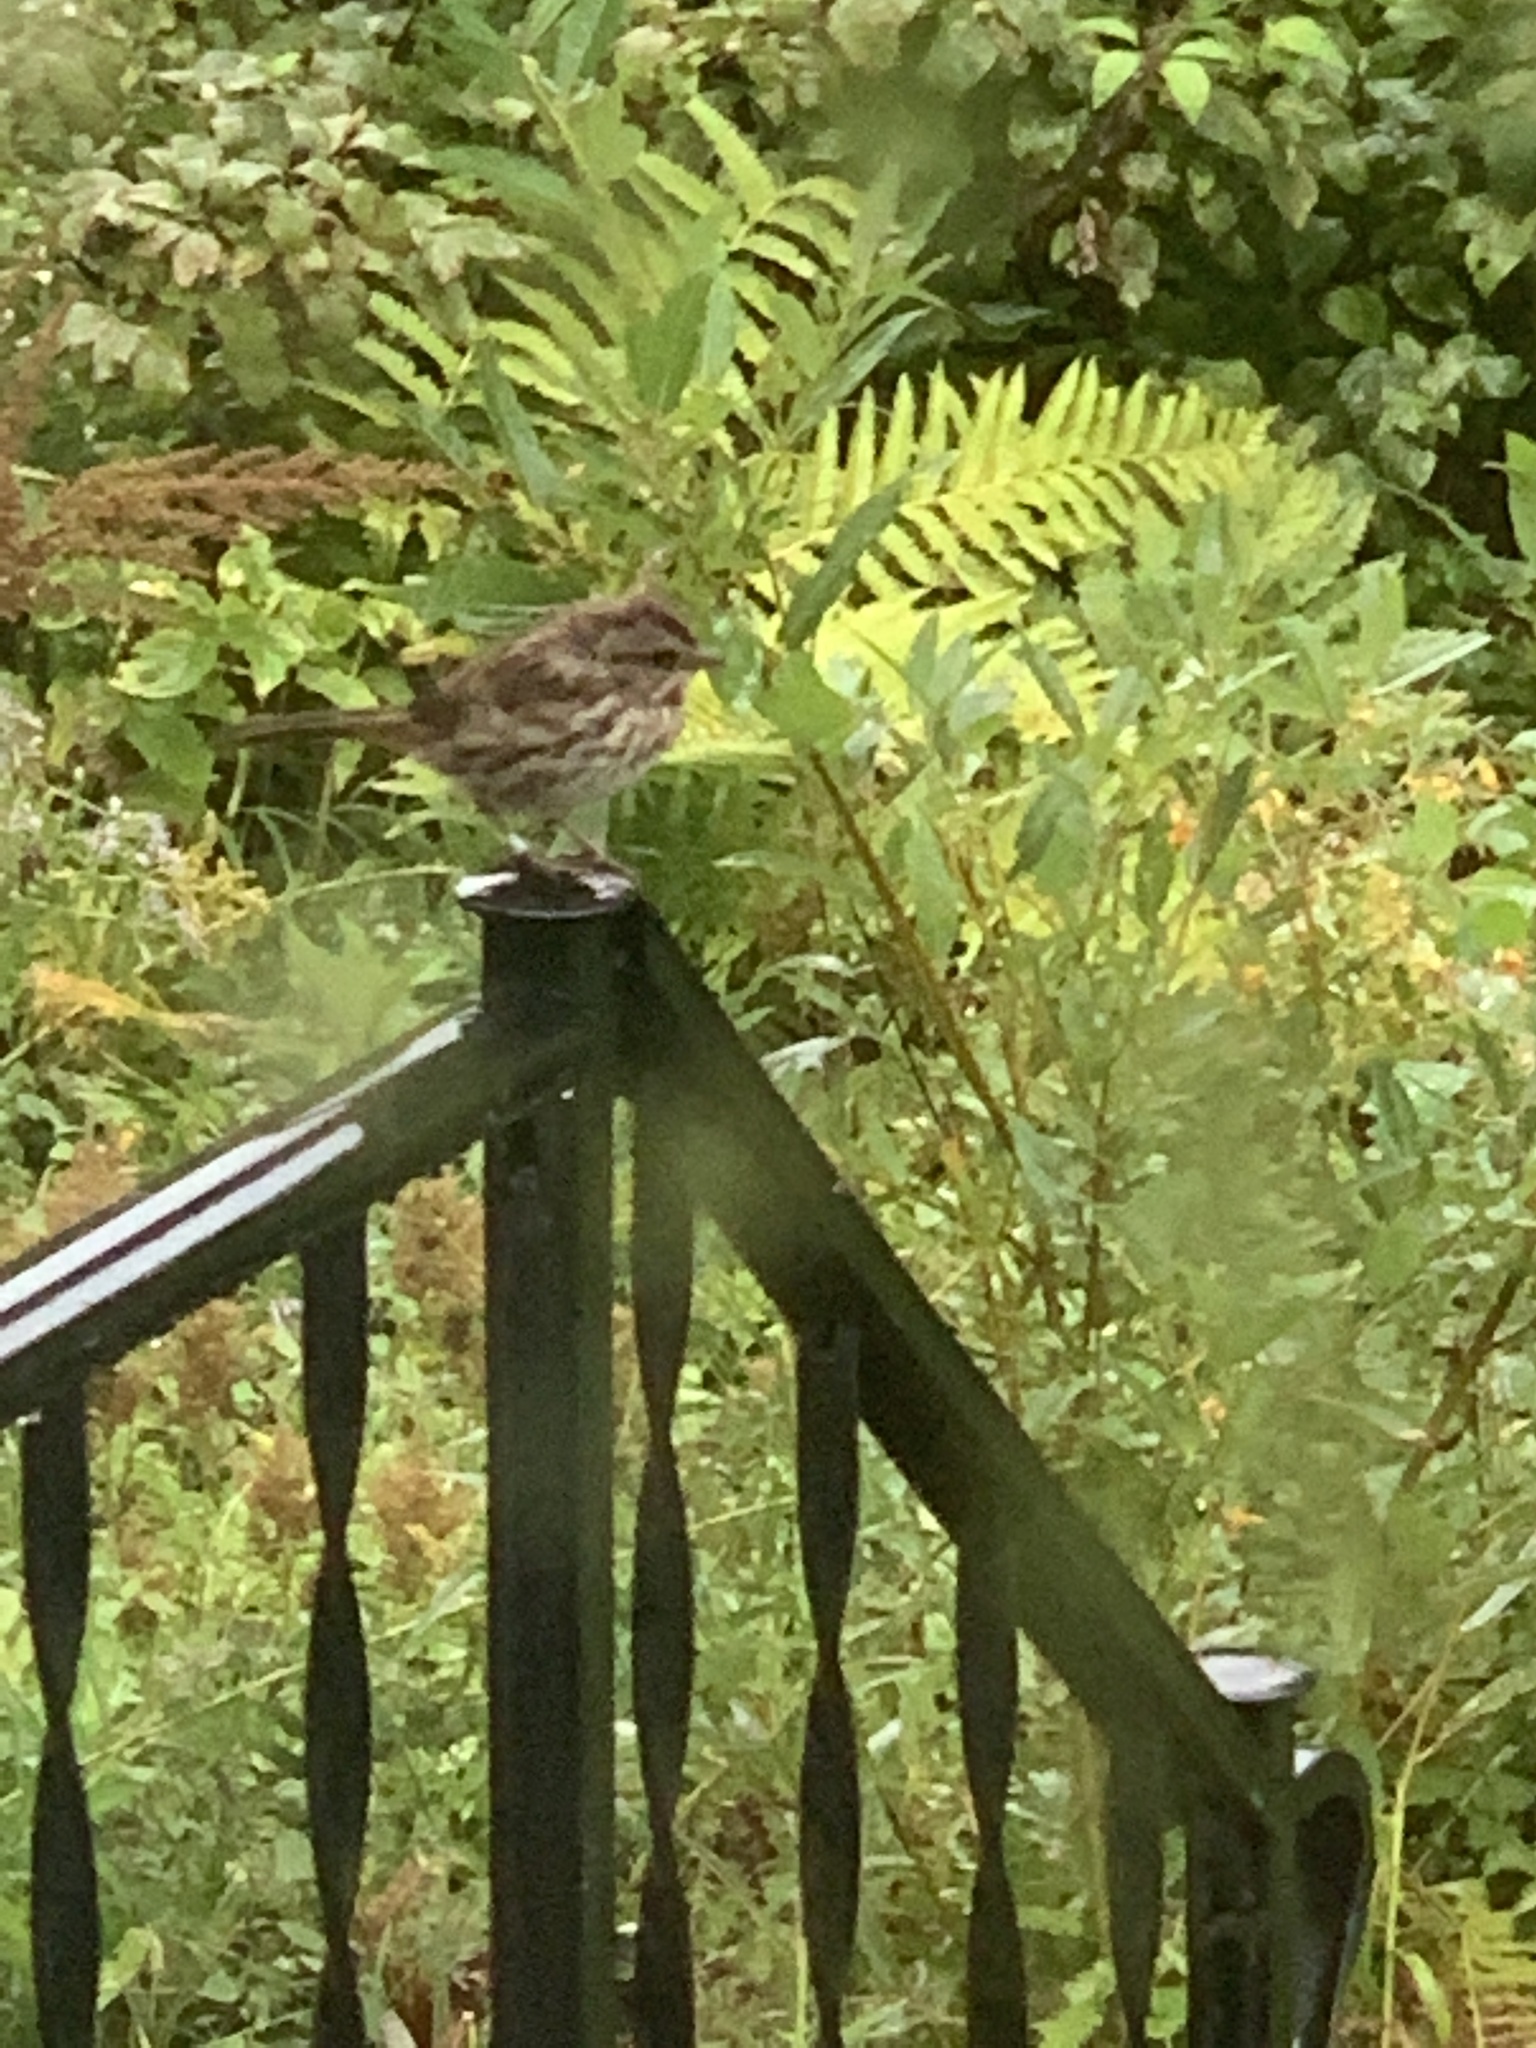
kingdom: Animalia
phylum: Chordata
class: Aves
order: Passeriformes
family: Passerellidae
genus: Melospiza
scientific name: Melospiza melodia
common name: Song sparrow
